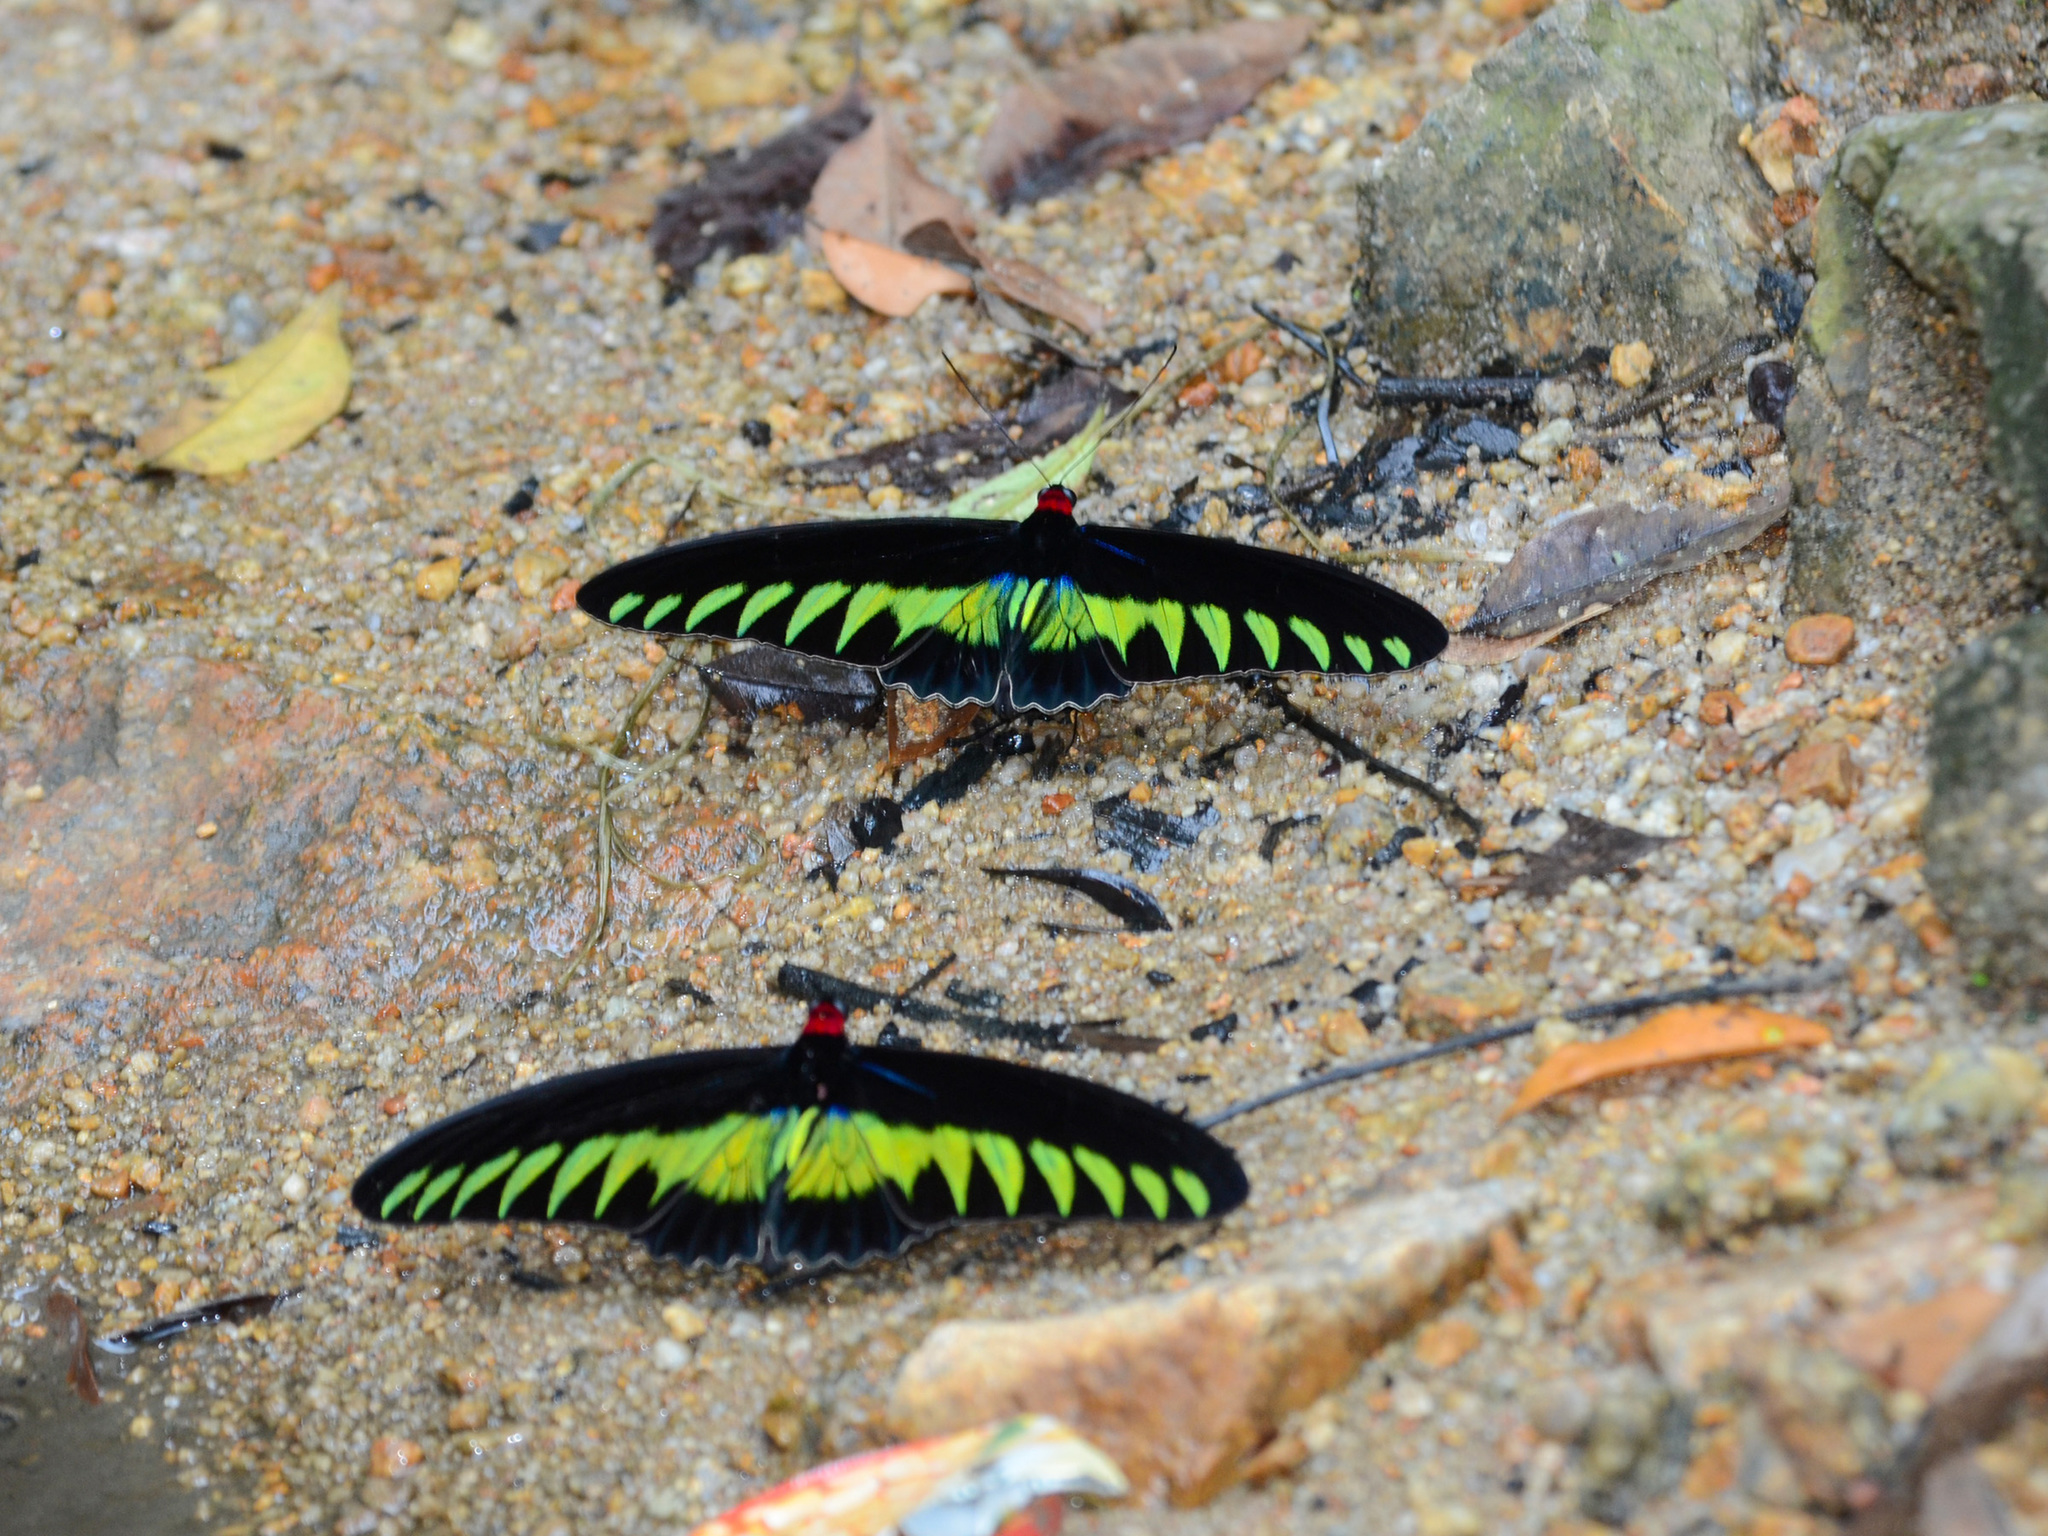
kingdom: Animalia
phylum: Arthropoda
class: Insecta
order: Lepidoptera
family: Papilionidae
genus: Trogonoptera
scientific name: Trogonoptera brookiana
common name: Raja brooke's birdwing
